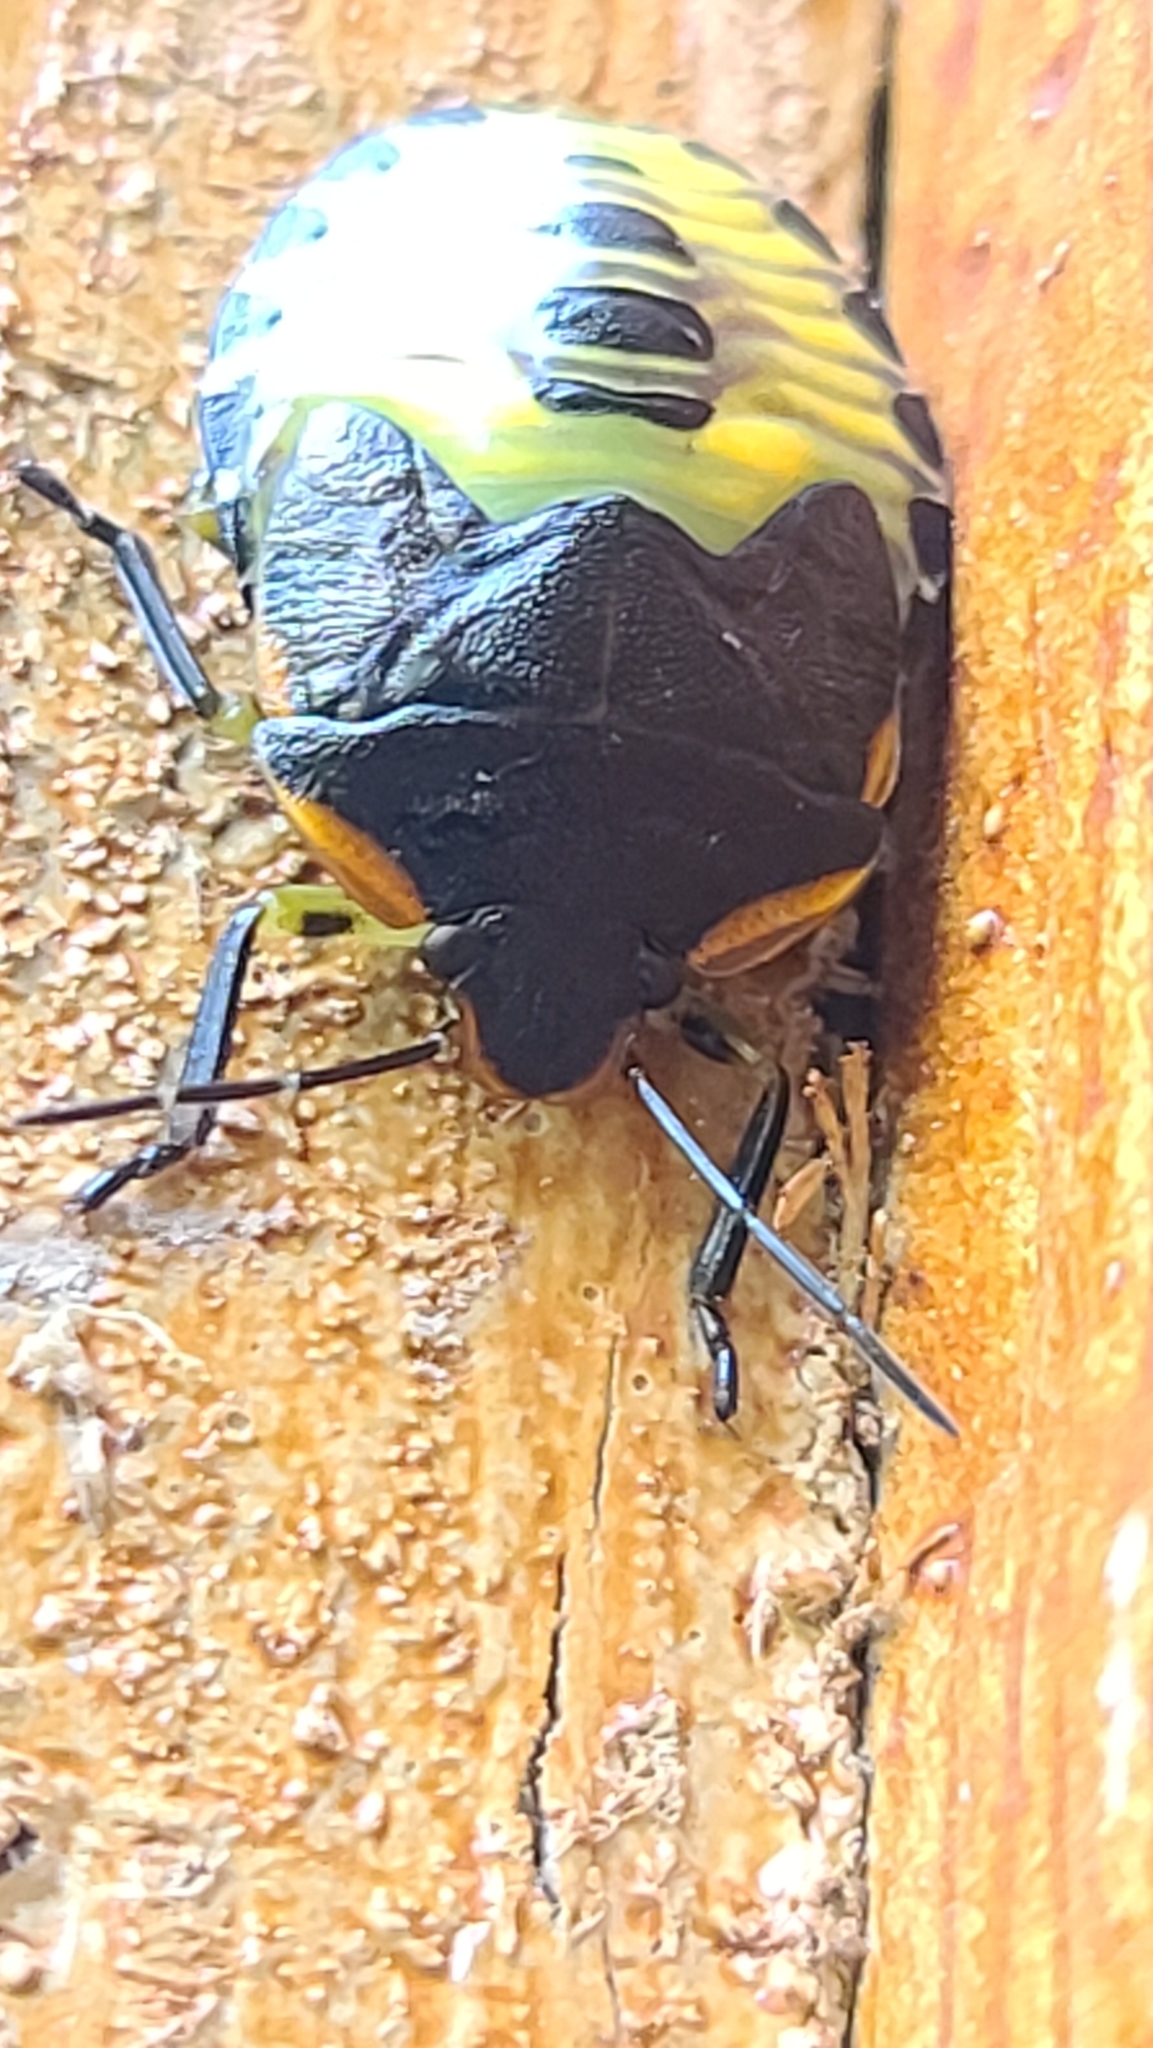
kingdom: Animalia
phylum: Arthropoda
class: Insecta
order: Hemiptera
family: Pentatomidae
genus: Chinavia
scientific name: Chinavia hilaris
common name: Green stink bug
